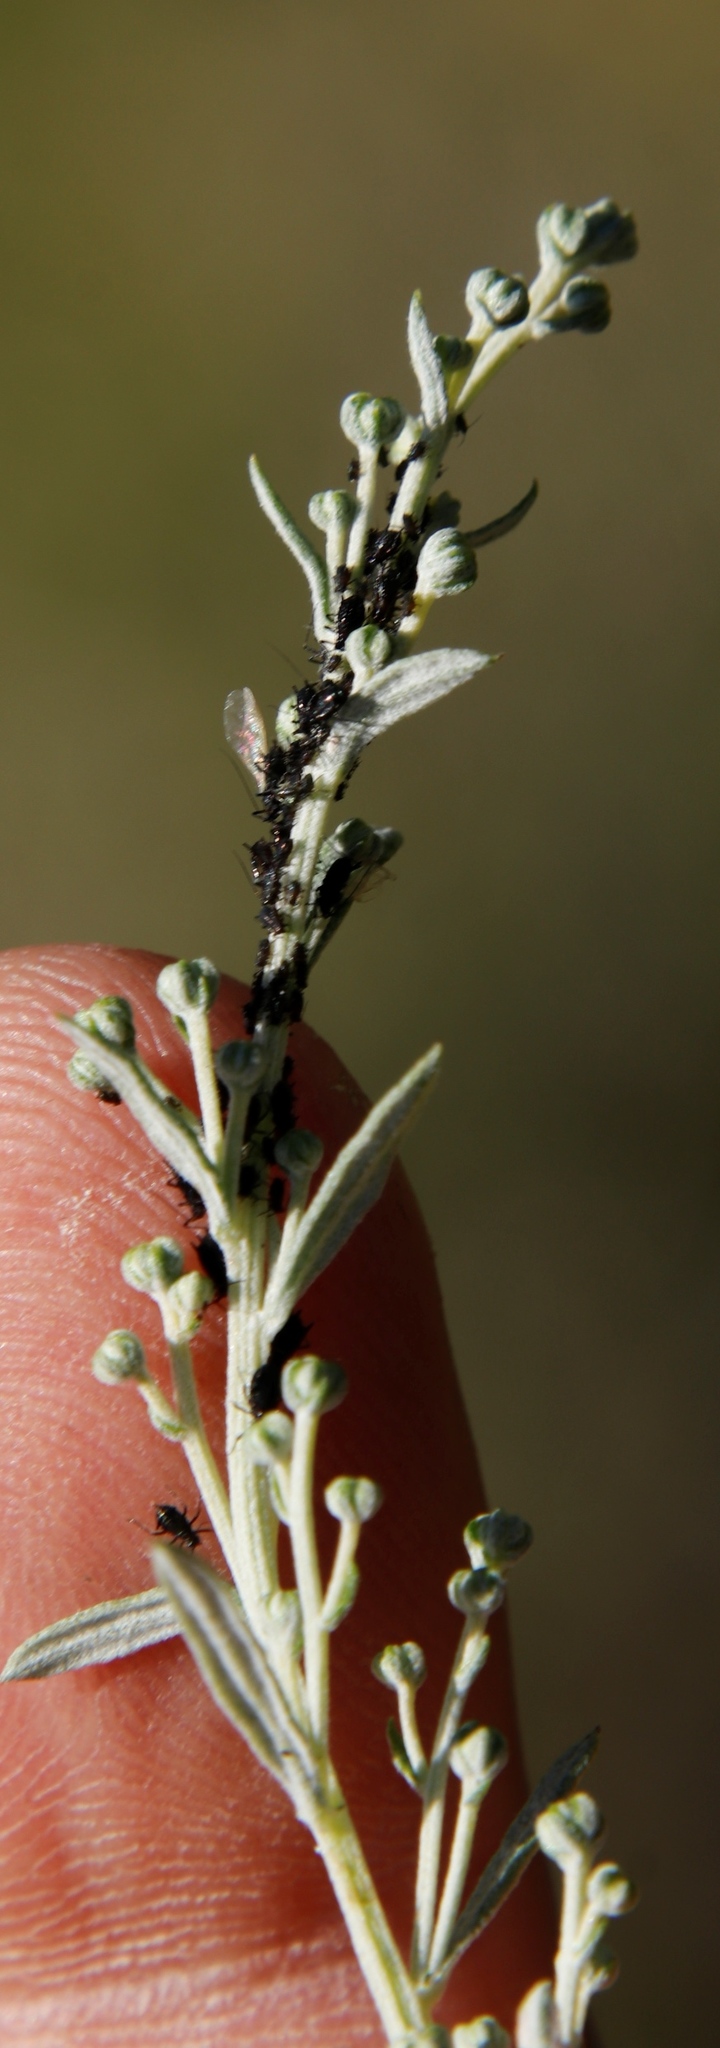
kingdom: Plantae
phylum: Tracheophyta
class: Magnoliopsida
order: Asterales
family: Asteraceae
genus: Artemisia
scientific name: Artemisia afra
